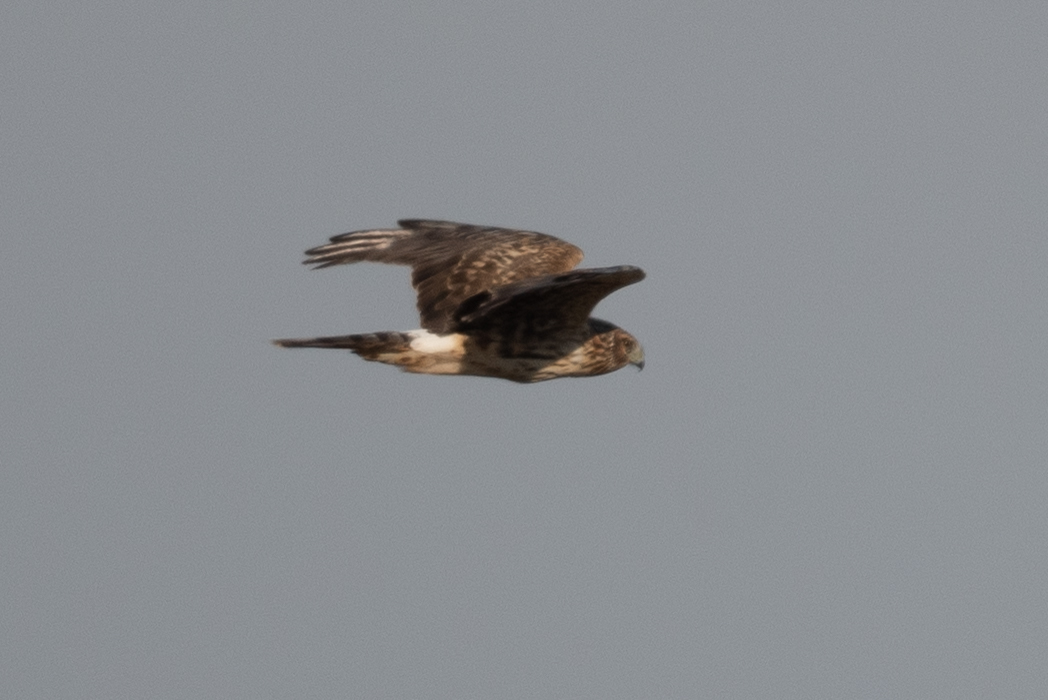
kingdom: Animalia
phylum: Chordata
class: Aves
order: Accipitriformes
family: Accipitridae
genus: Circus
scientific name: Circus cyaneus
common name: Hen harrier
